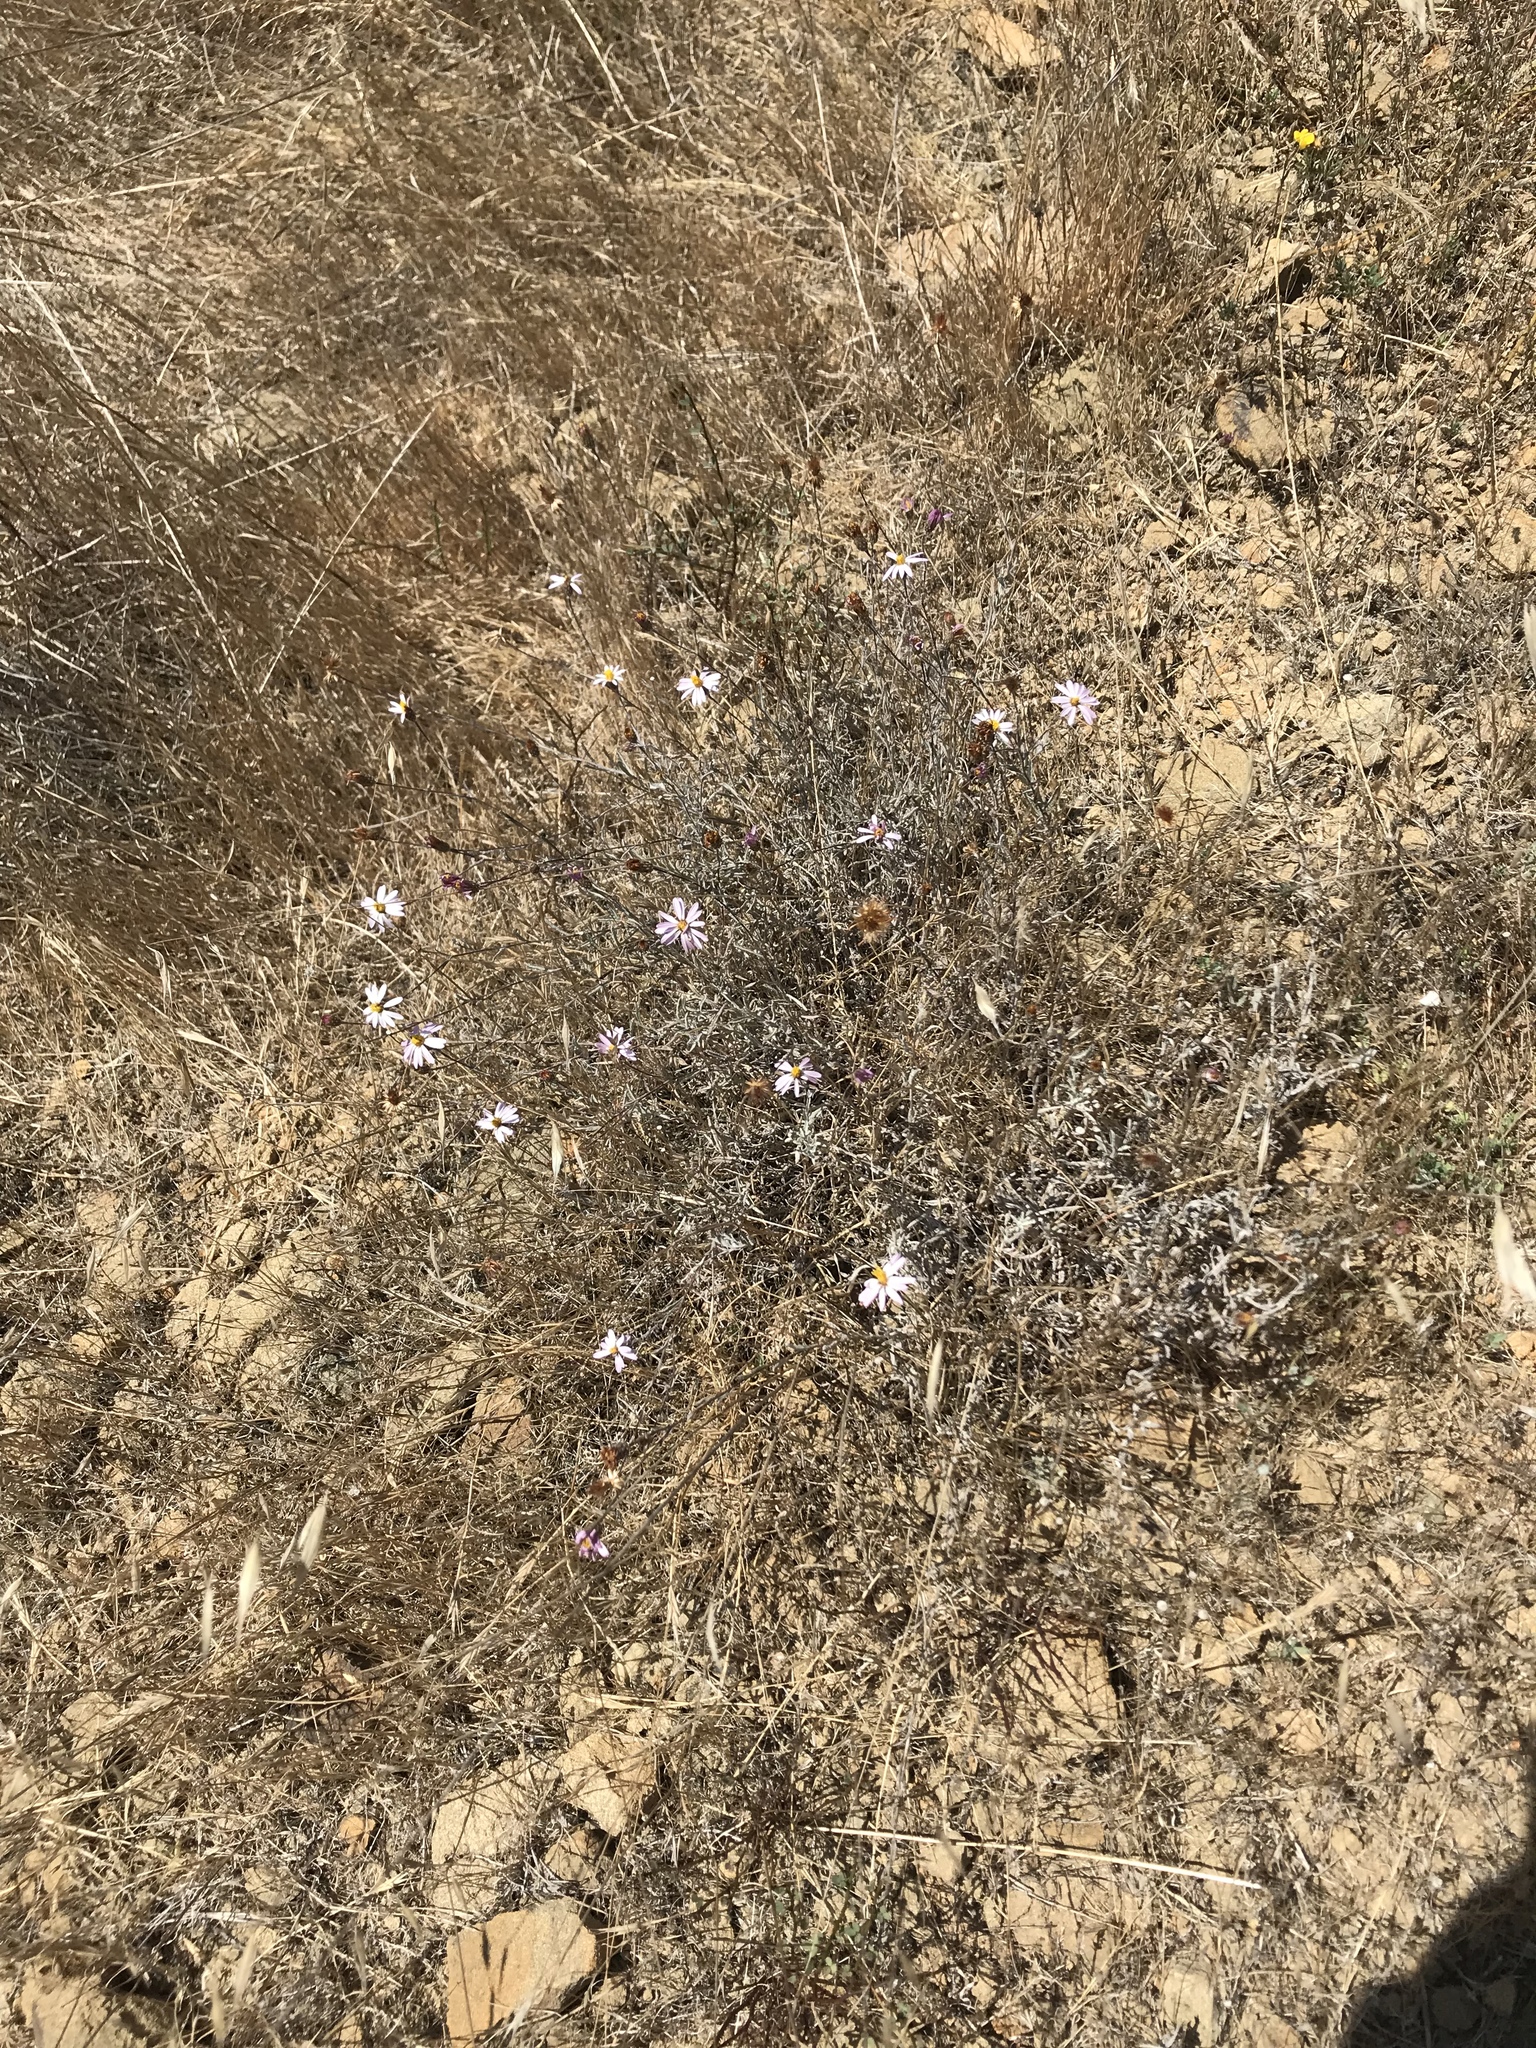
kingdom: Plantae
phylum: Tracheophyta
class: Magnoliopsida
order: Asterales
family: Asteraceae
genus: Corethrogyne
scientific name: Corethrogyne filaginifolia
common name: Sand-aster
